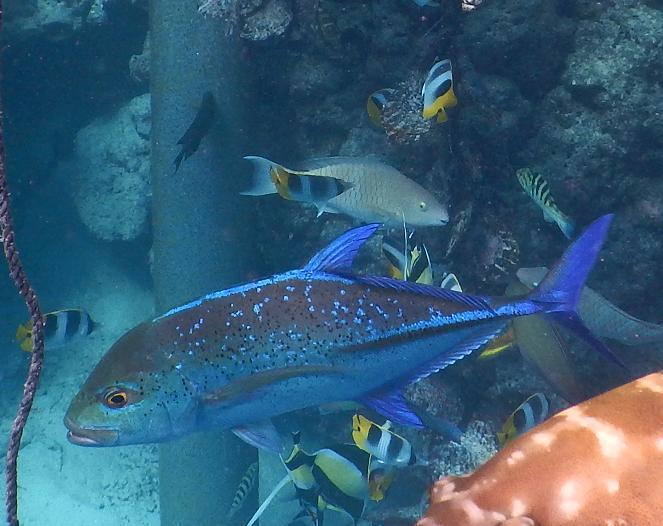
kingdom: Animalia
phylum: Chordata
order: Perciformes
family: Carangidae
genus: Caranx
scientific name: Caranx melampygus
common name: Bluefin trevally
